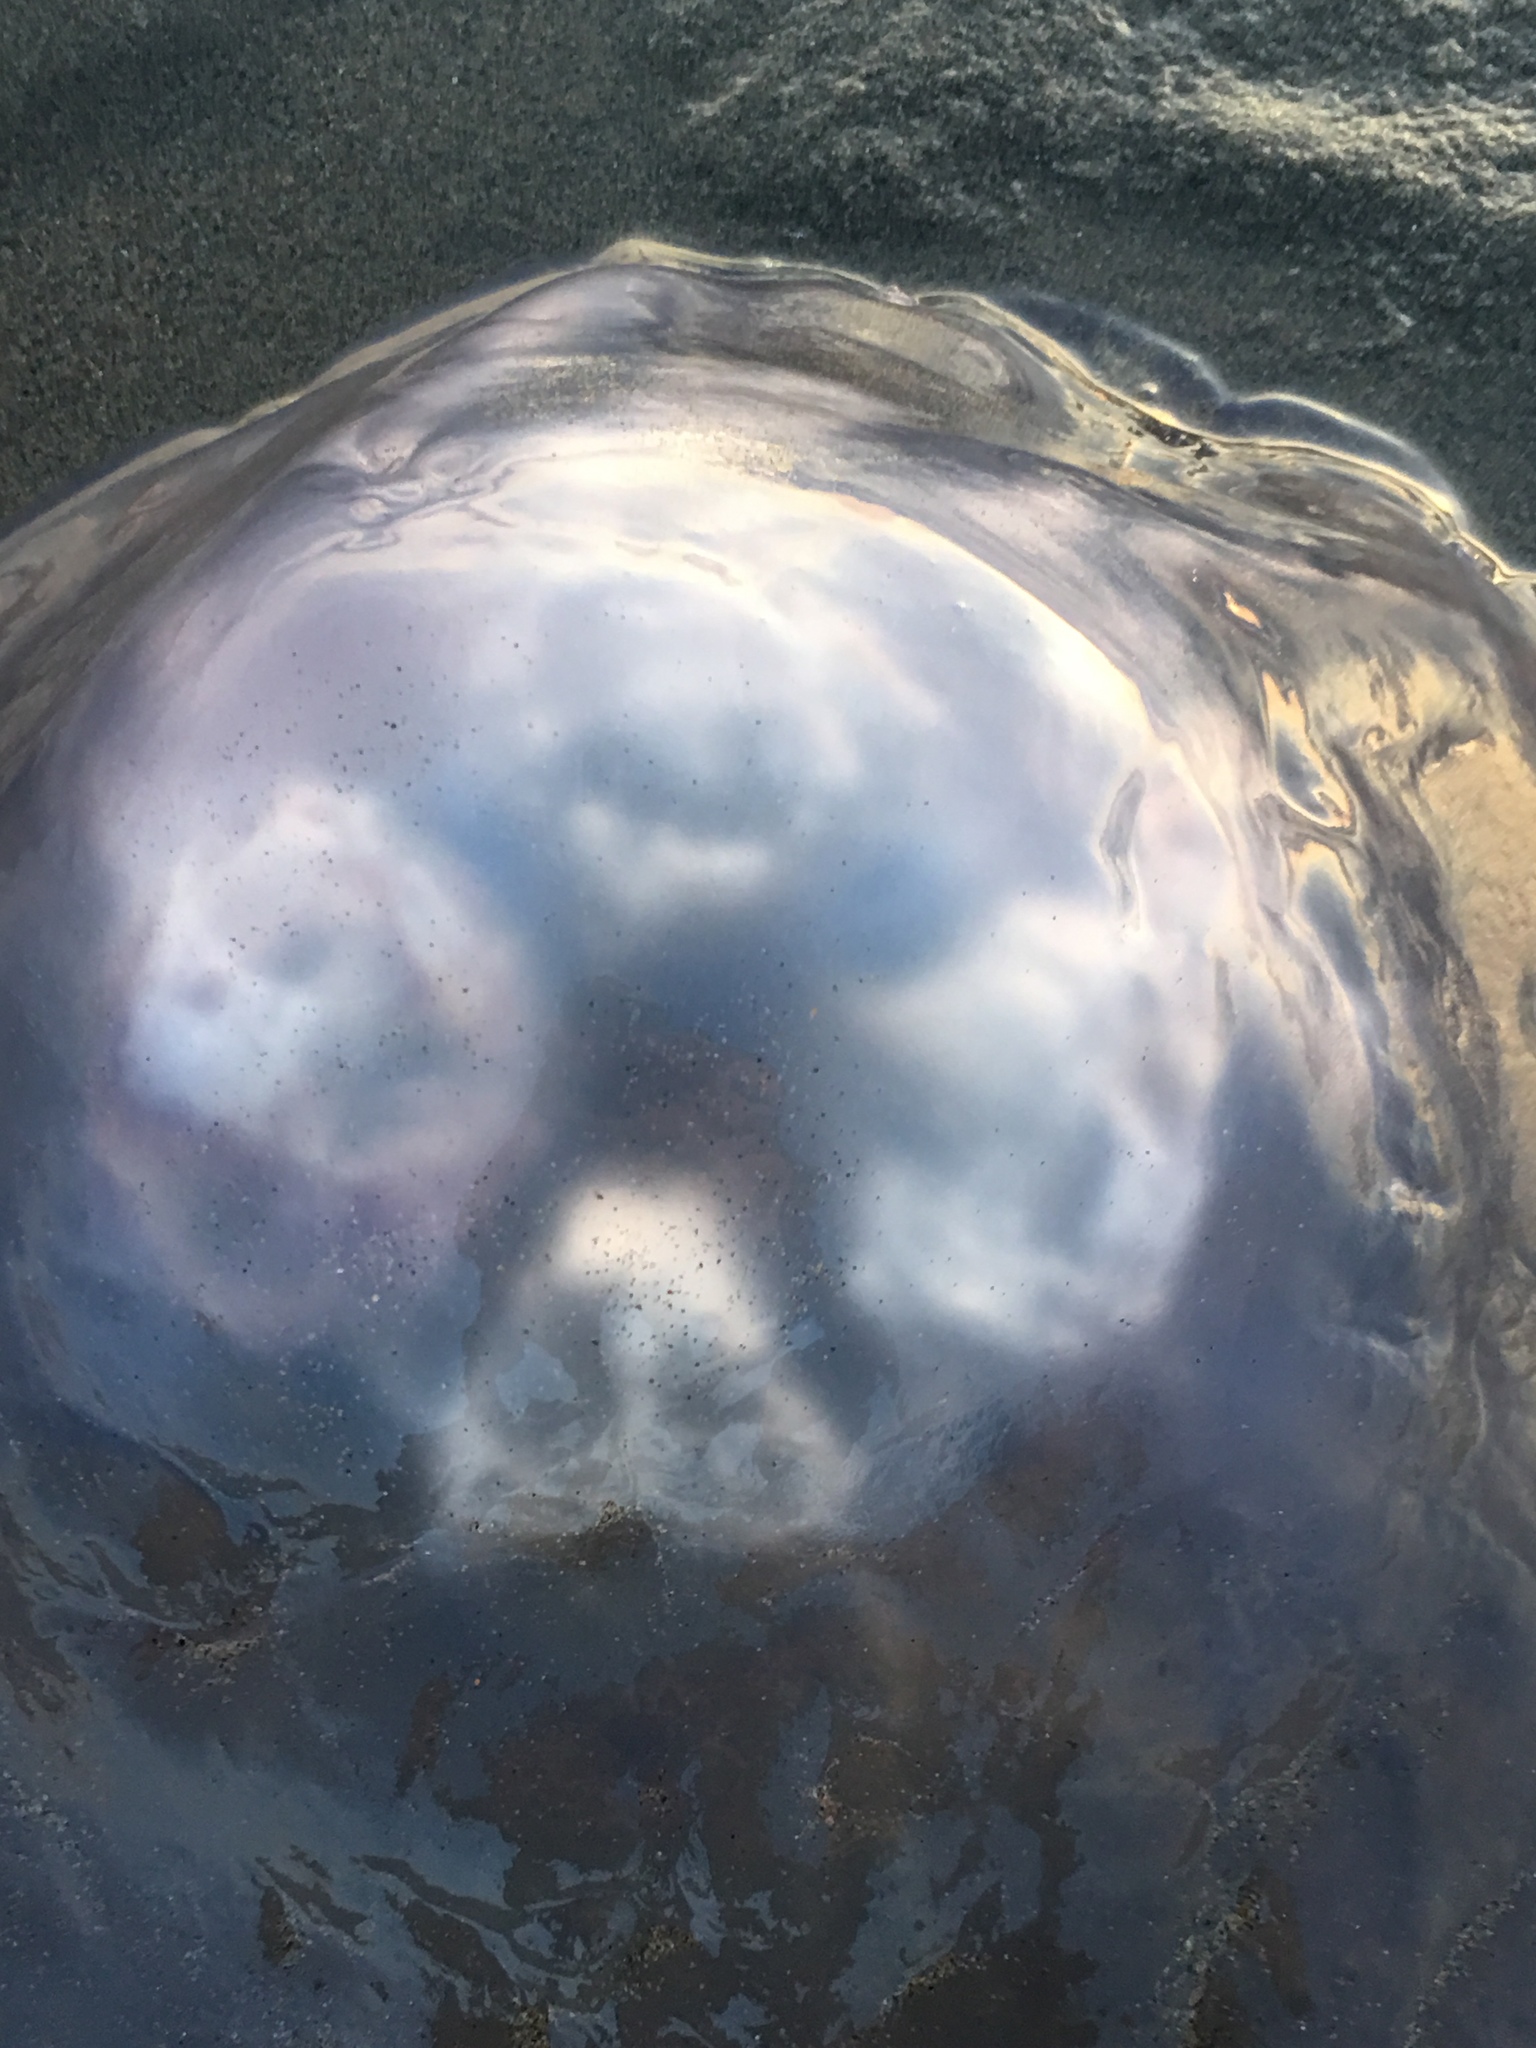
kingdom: Animalia
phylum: Cnidaria
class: Scyphozoa
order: Semaeostomeae
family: Ulmaridae
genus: Aurelia
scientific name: Aurelia labiata
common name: Pacific moon jelly
